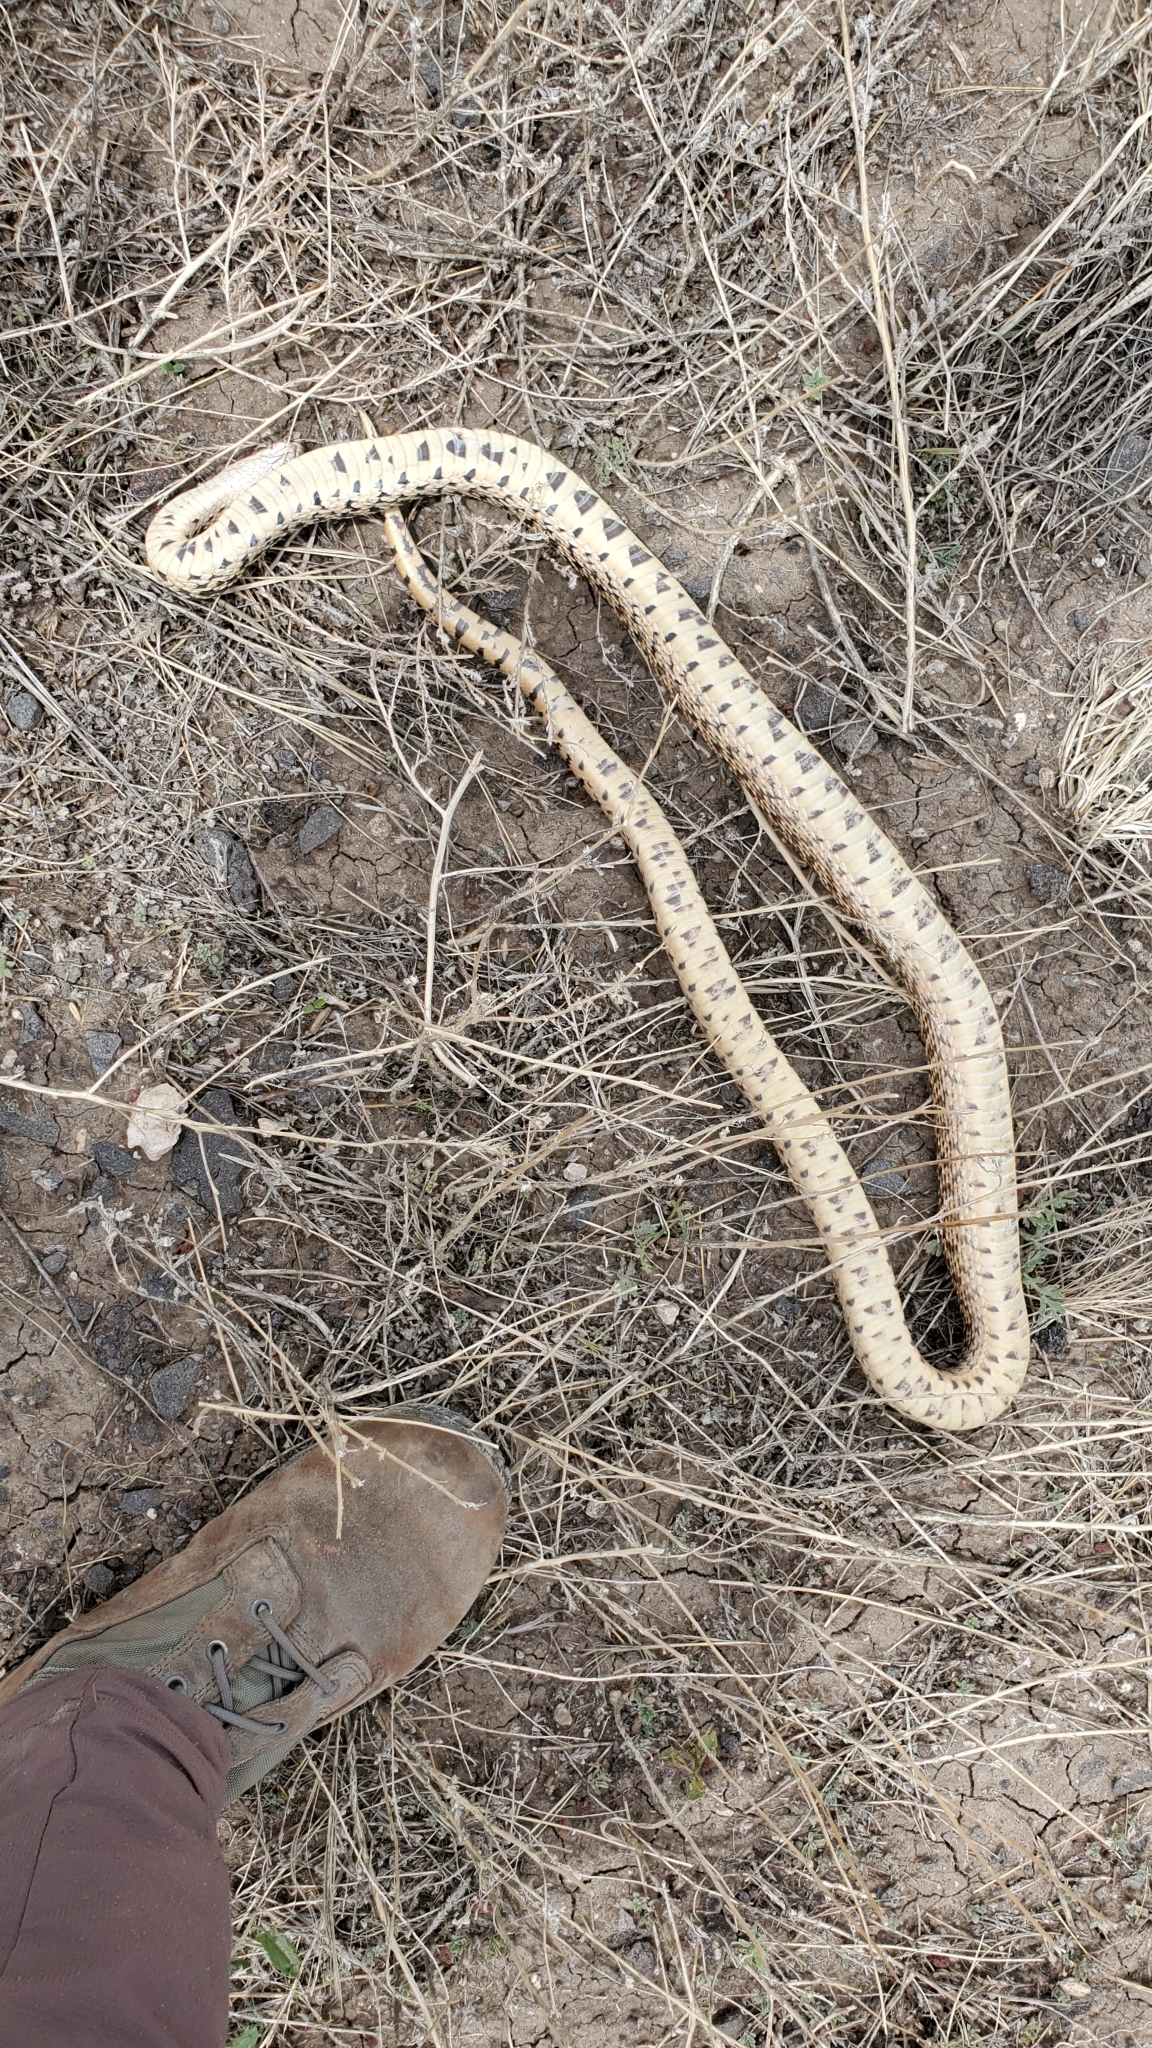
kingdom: Animalia
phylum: Chordata
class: Squamata
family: Colubridae
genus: Pituophis
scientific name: Pituophis catenifer
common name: Gopher snake
